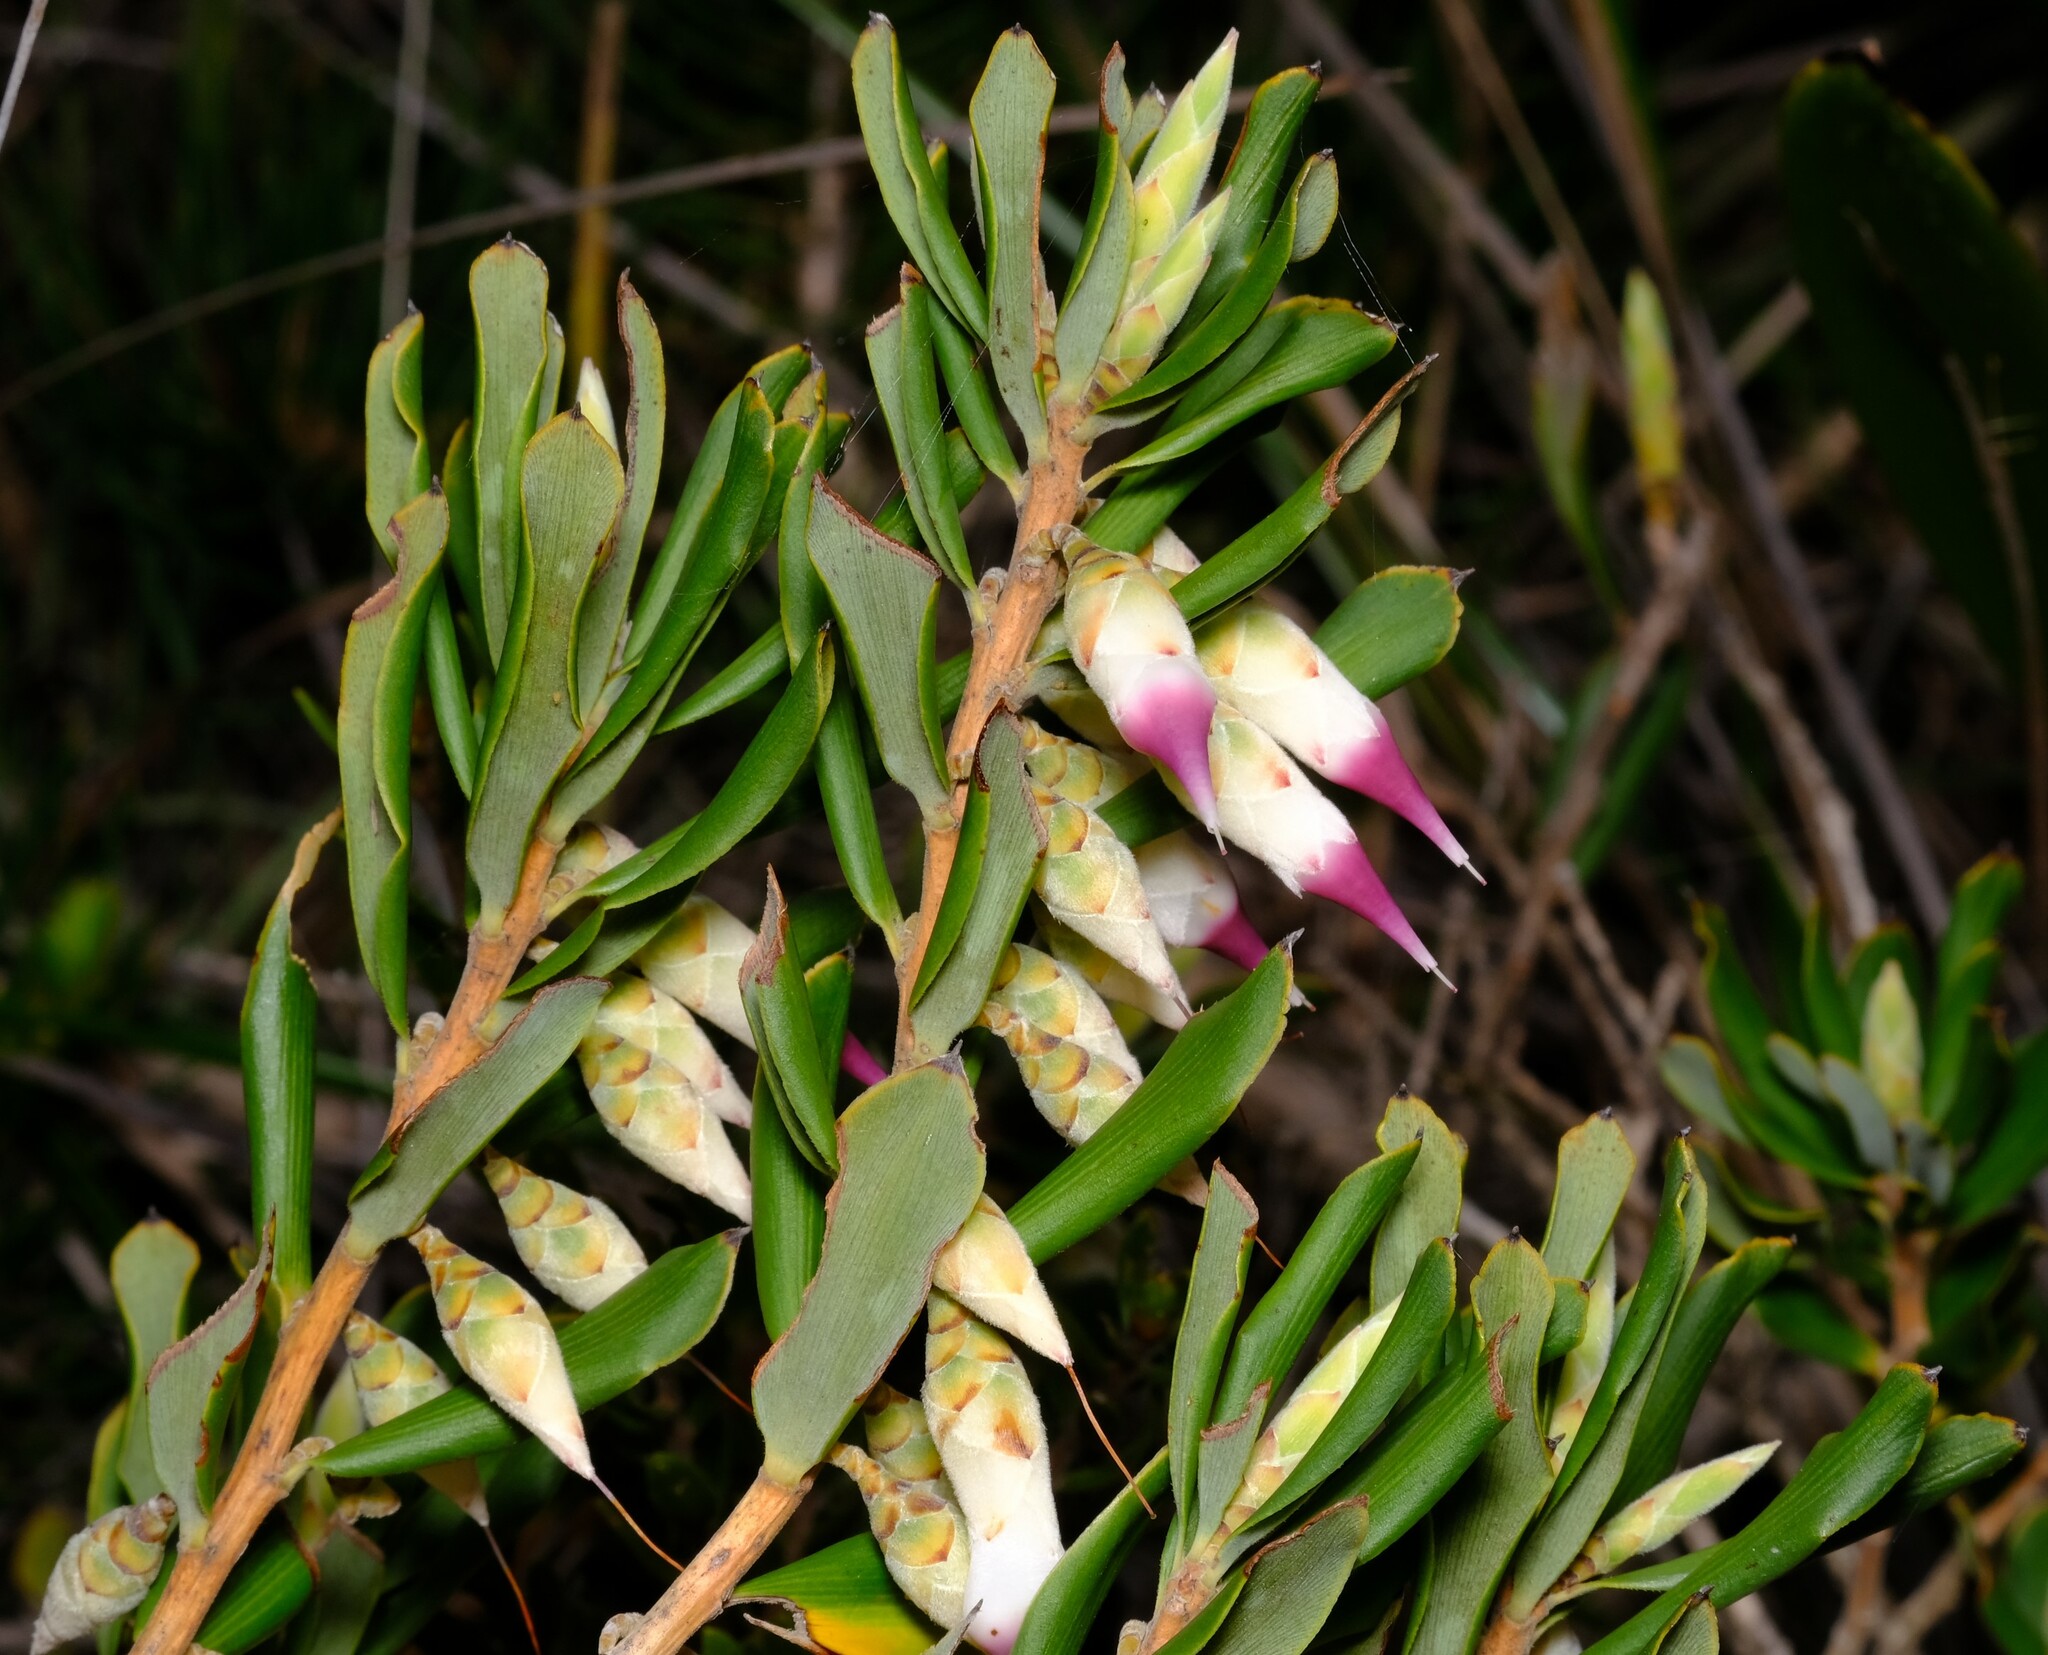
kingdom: Plantae
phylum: Tracheophyta
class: Magnoliopsida
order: Ericales
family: Ericaceae
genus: Conostephium
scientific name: Conostephium pendulum
